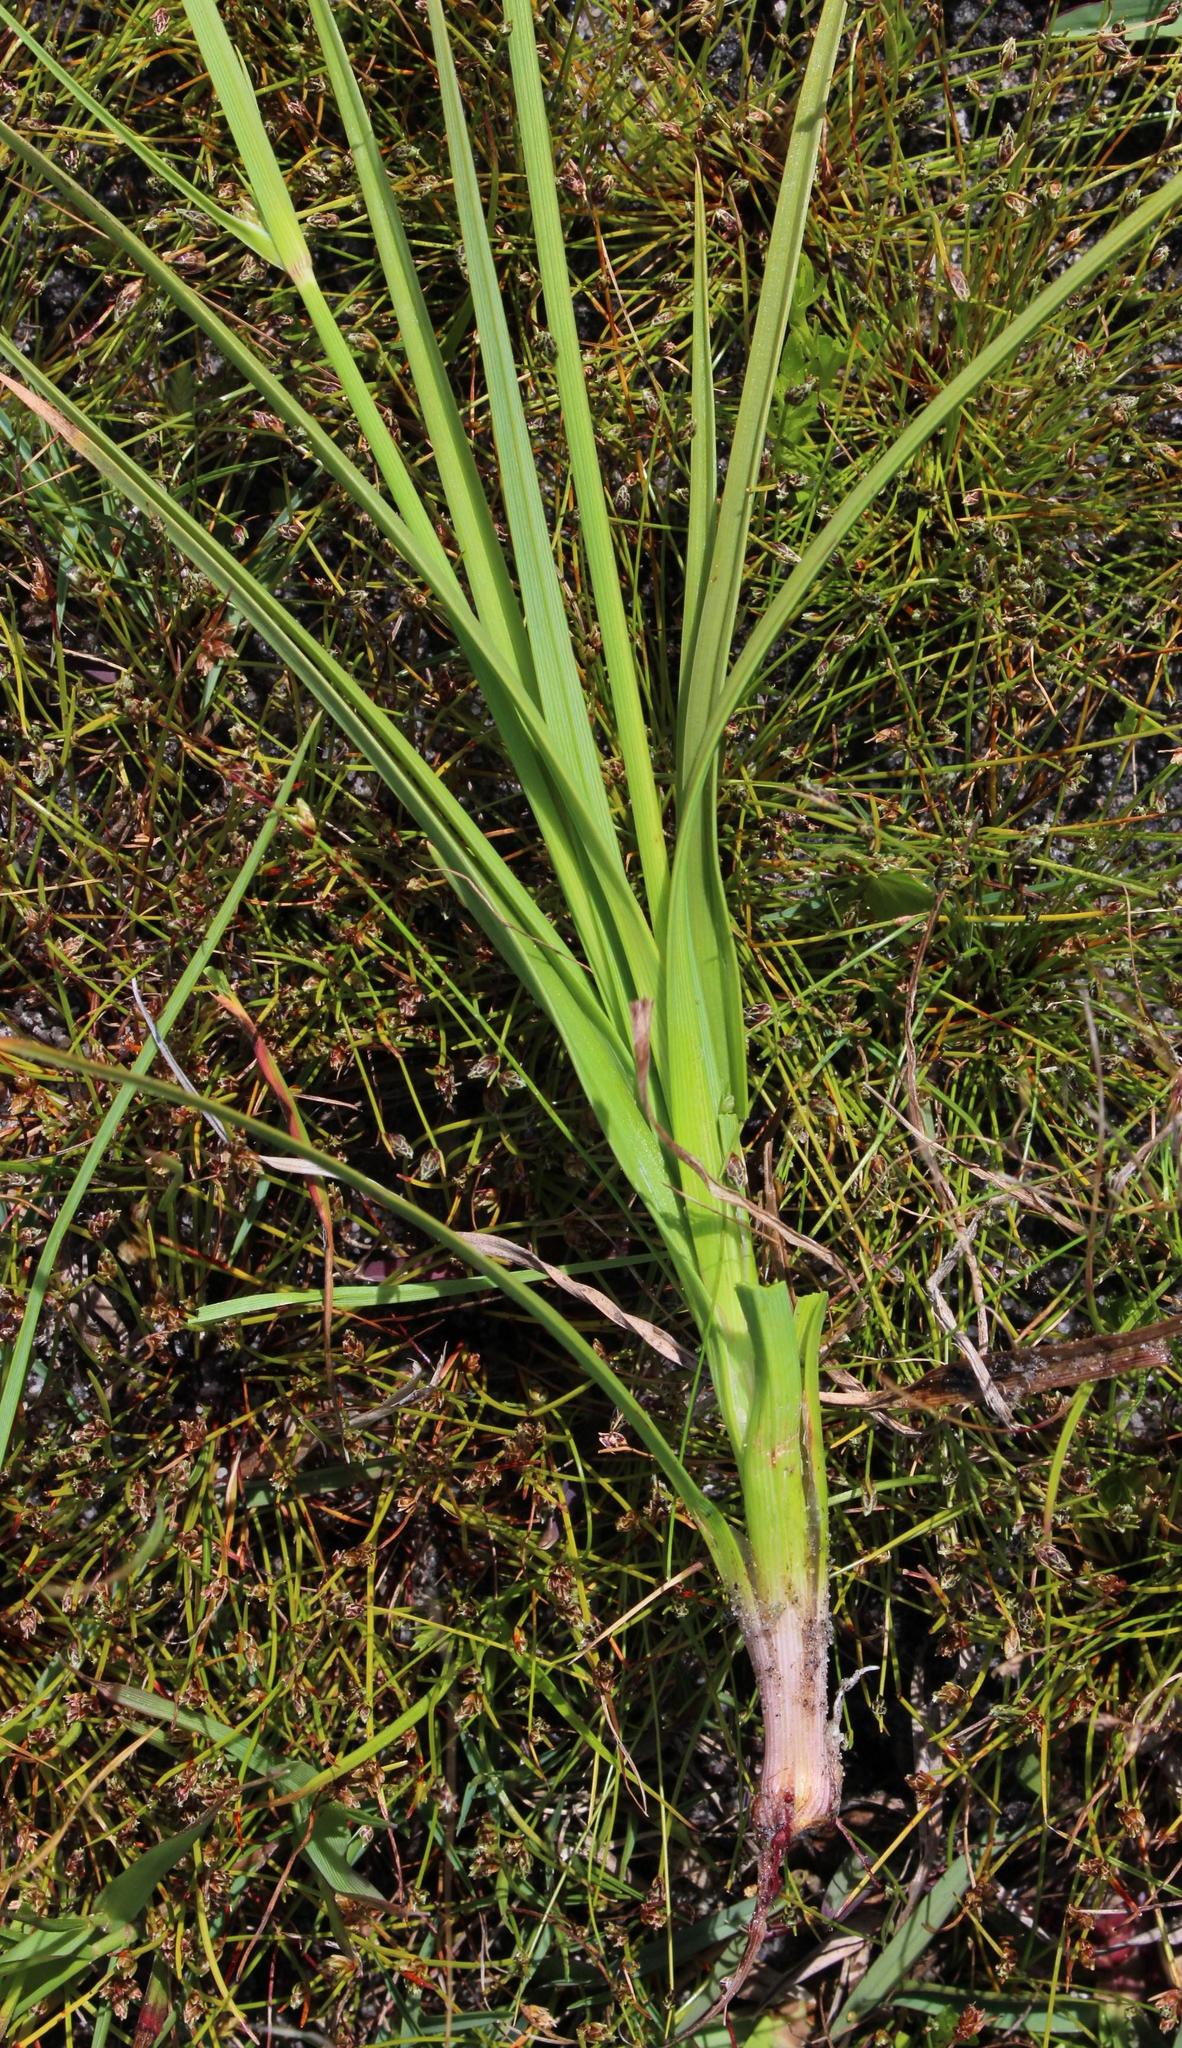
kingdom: Plantae
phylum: Tracheophyta
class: Liliopsida
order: Poales
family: Cyperaceae
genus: Cyperus
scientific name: Cyperus sphaerospermus
